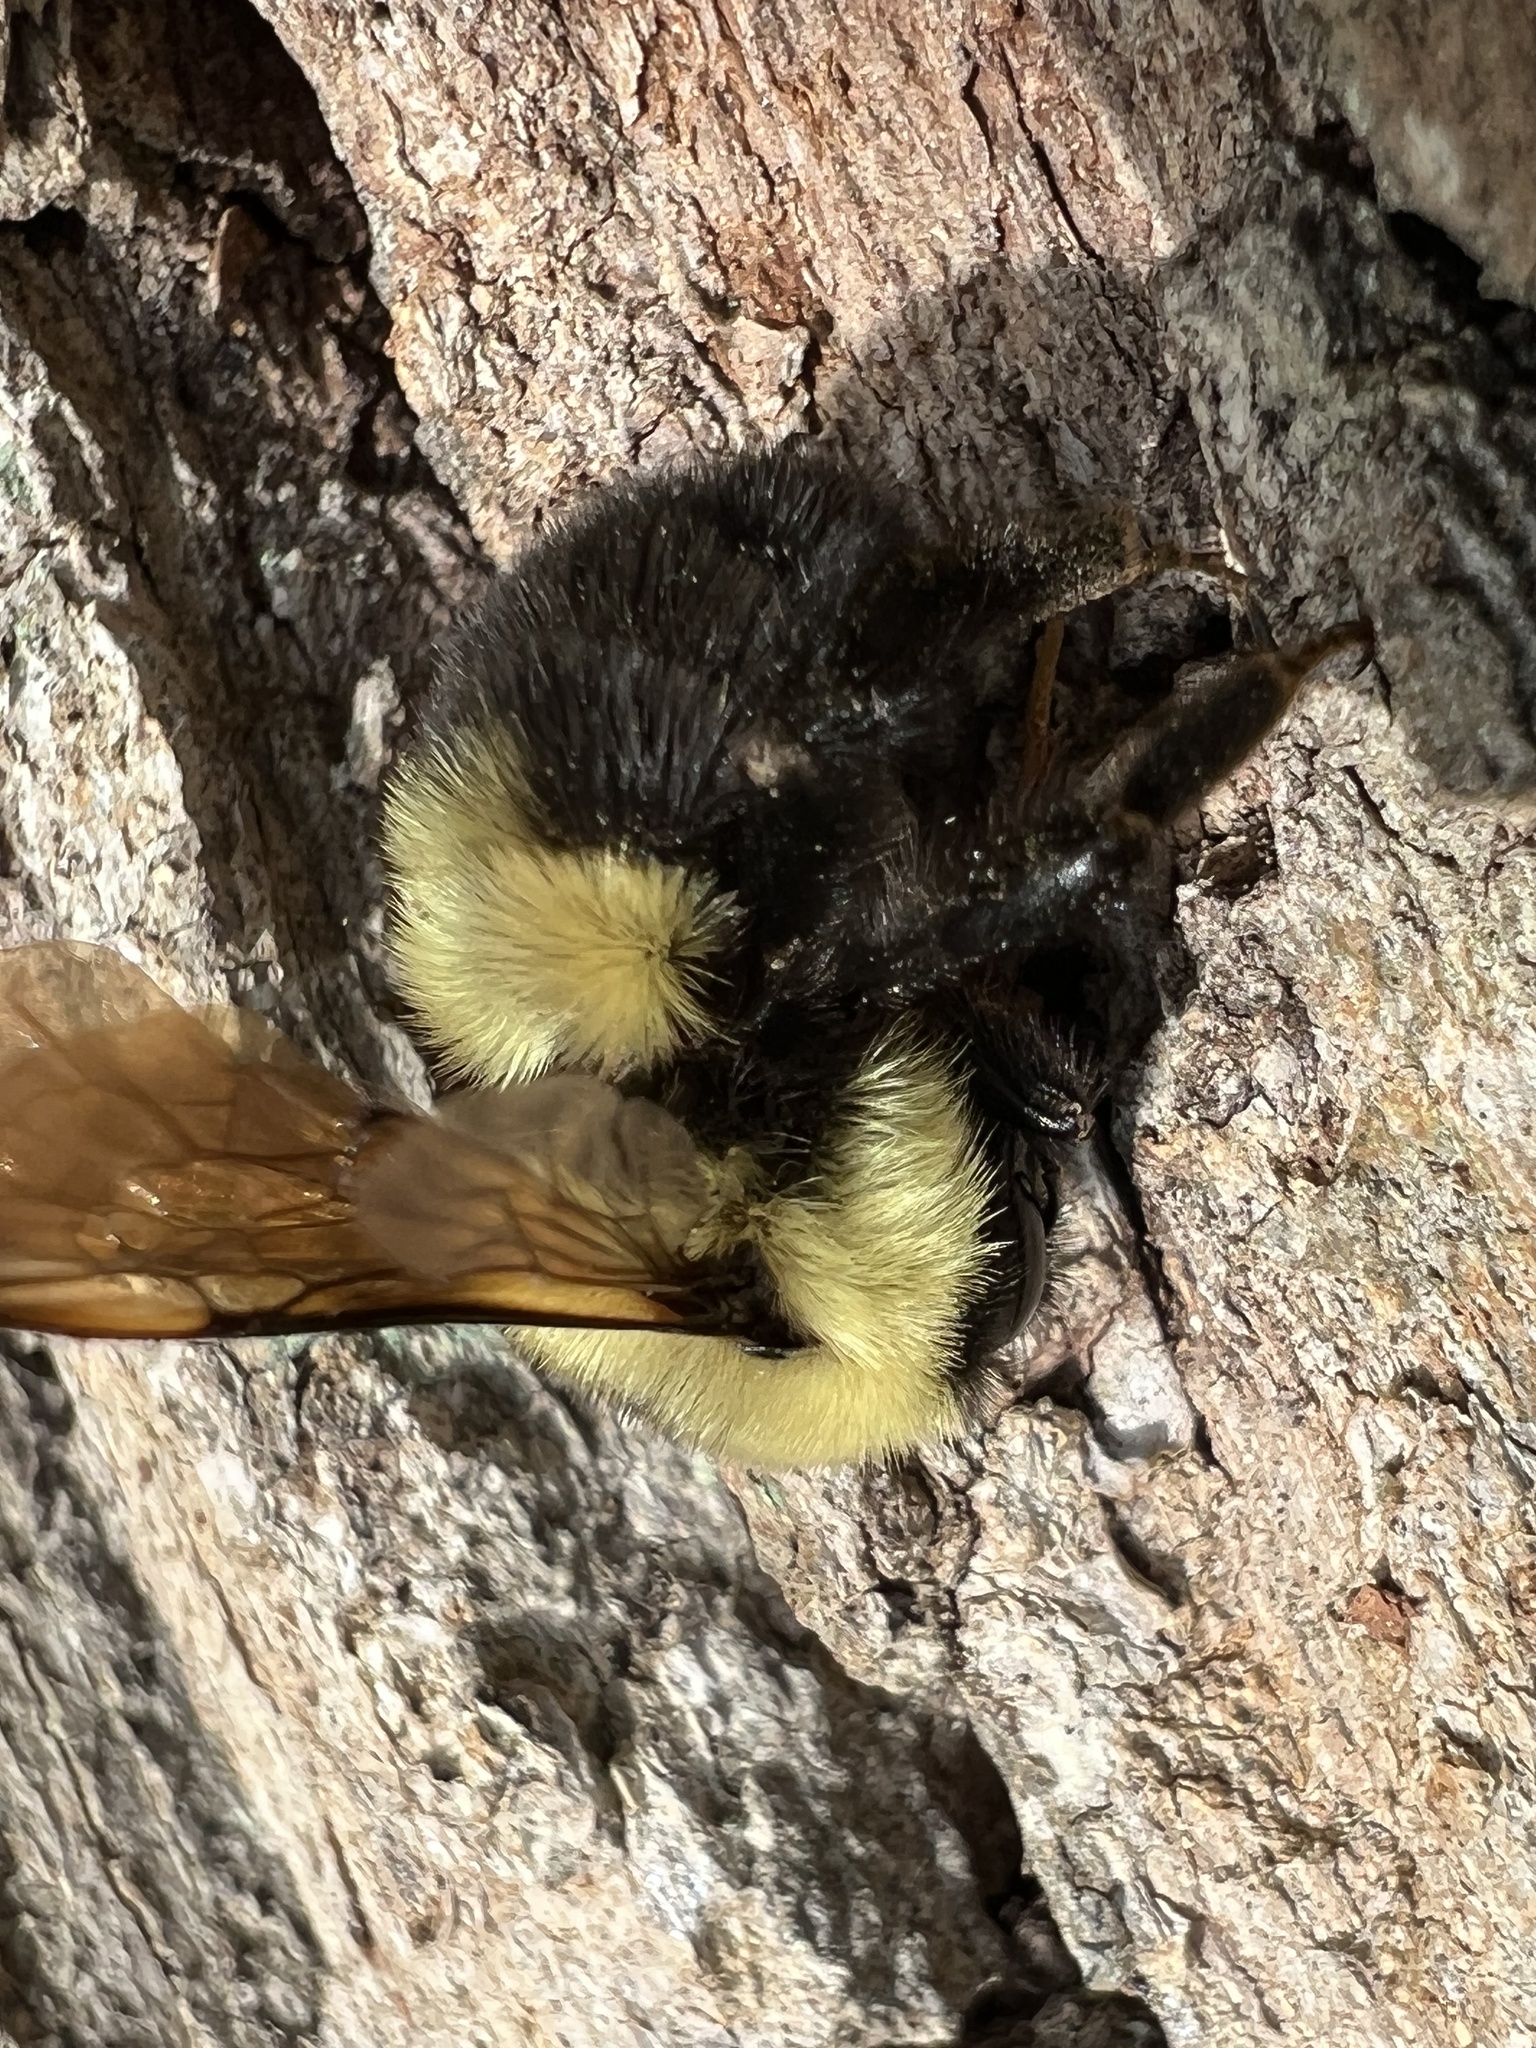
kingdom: Animalia
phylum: Arthropoda
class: Insecta
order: Hymenoptera
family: Apidae
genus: Bombus
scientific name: Bombus bimaculatus
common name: Two-spotted bumble bee
